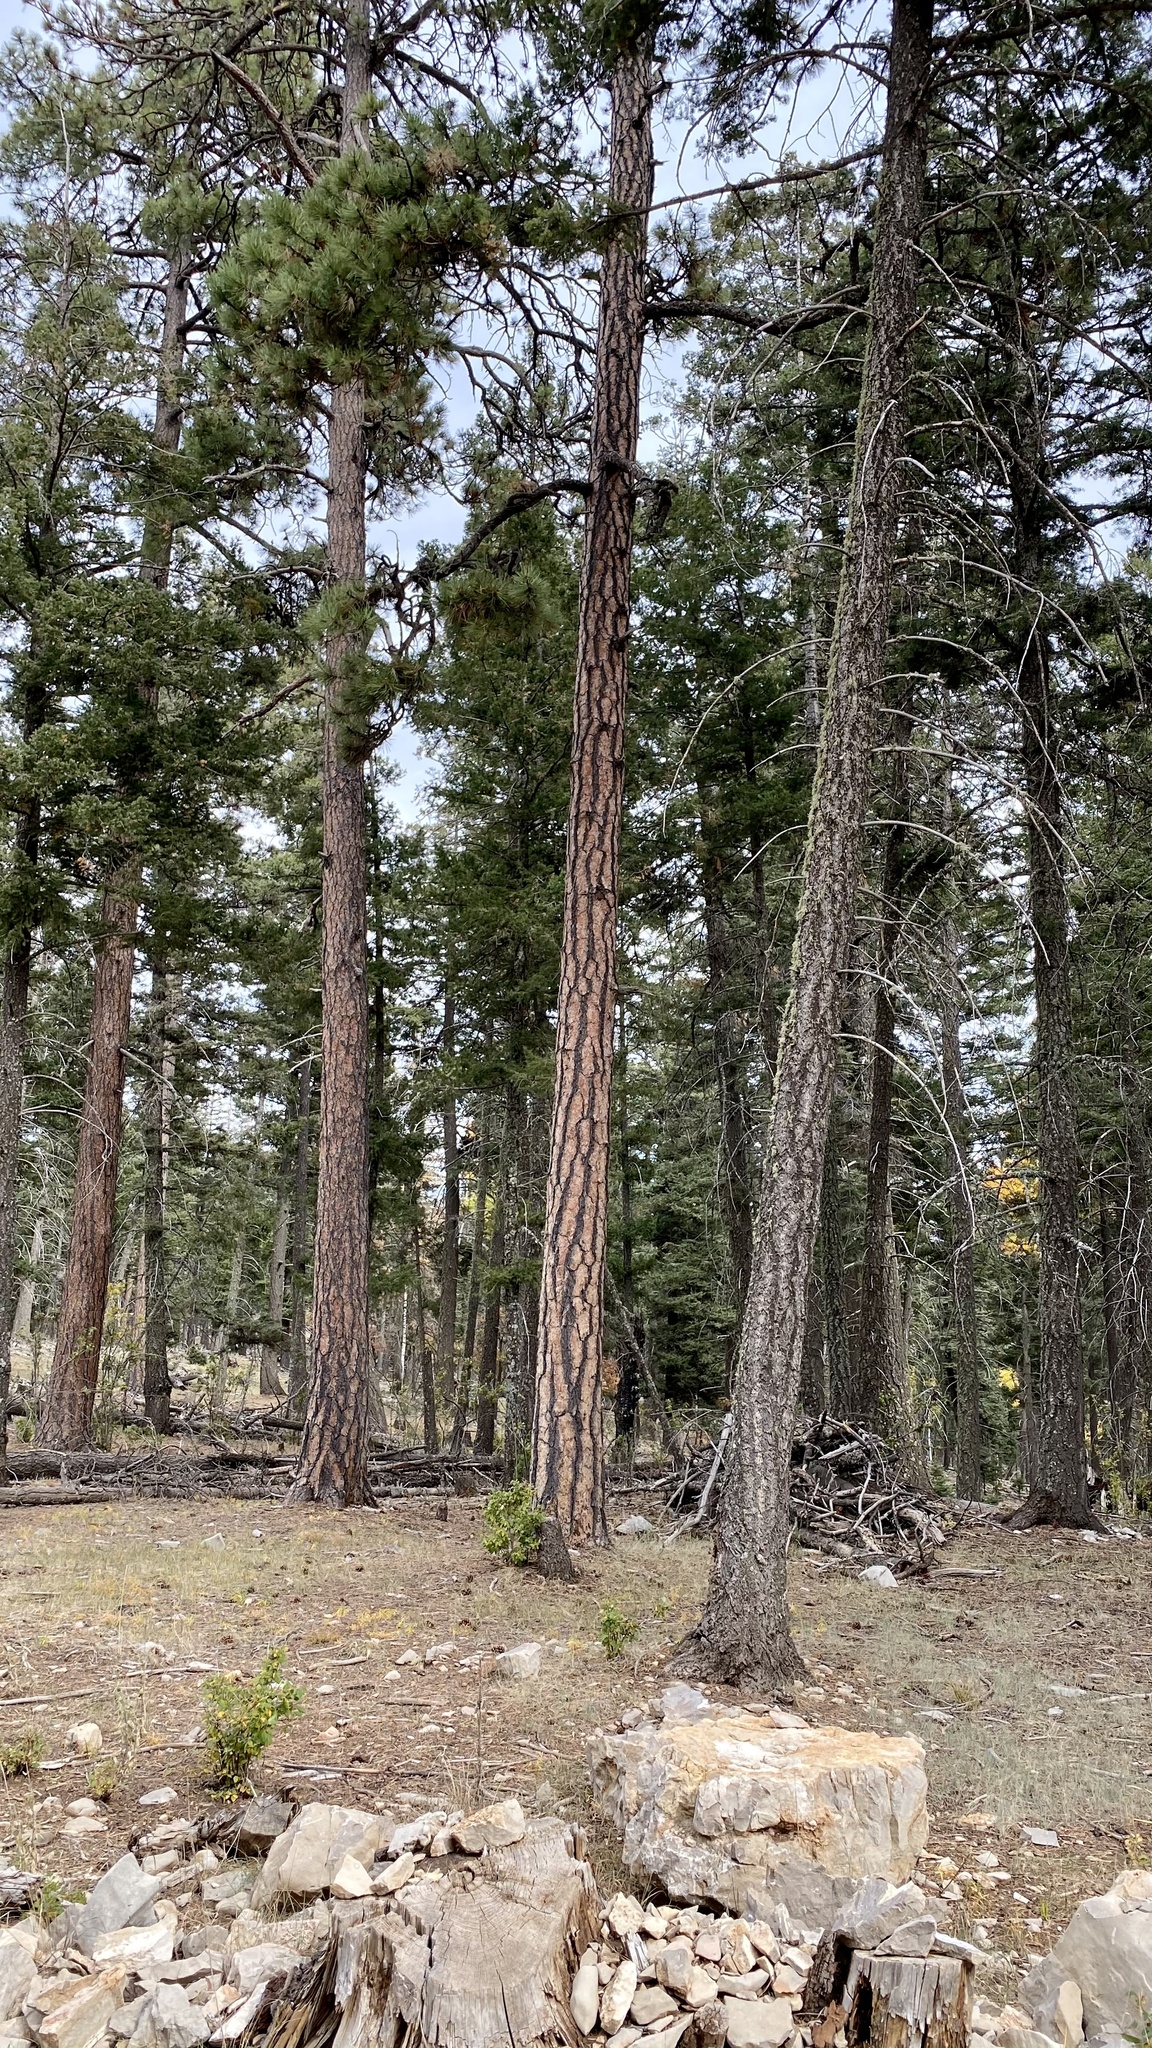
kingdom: Plantae
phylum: Tracheophyta
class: Pinopsida
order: Pinales
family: Pinaceae
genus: Pinus
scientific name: Pinus ponderosa
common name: Western yellow-pine
